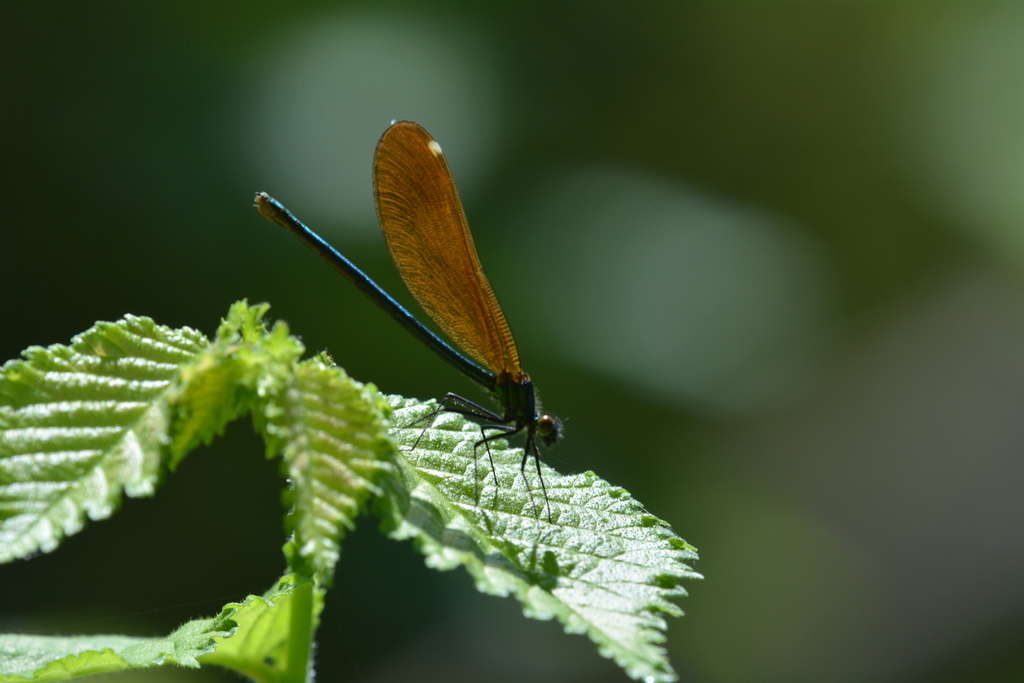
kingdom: Animalia
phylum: Arthropoda
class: Insecta
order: Odonata
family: Calopterygidae
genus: Calopteryx
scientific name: Calopteryx virgo
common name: Beautiful demoiselle
